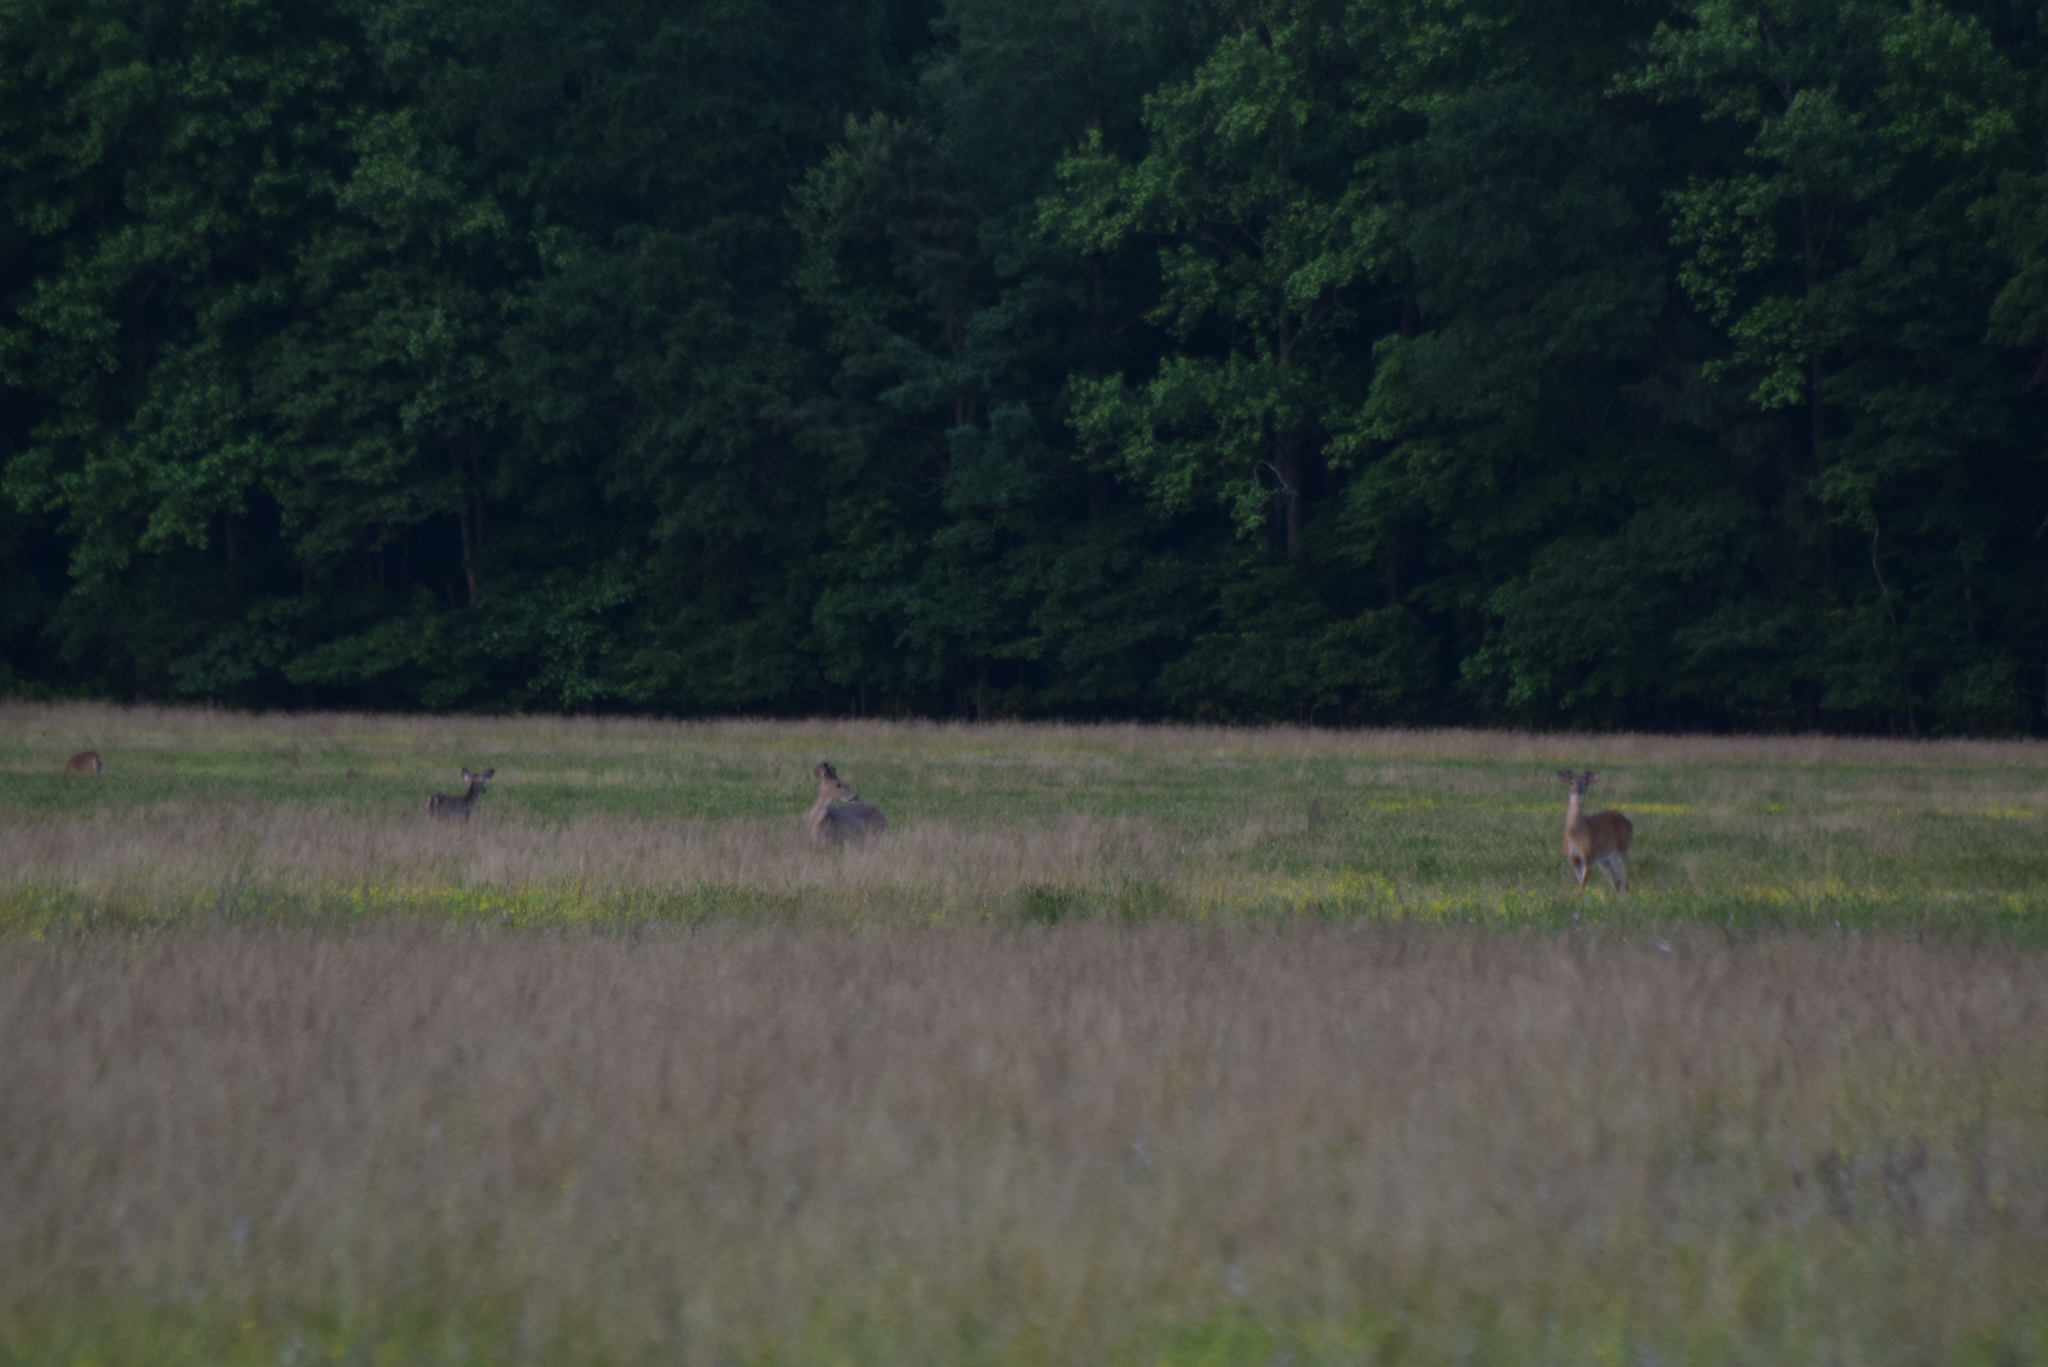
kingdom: Animalia
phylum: Chordata
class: Mammalia
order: Artiodactyla
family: Cervidae
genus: Odocoileus
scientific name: Odocoileus virginianus
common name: White-tailed deer
